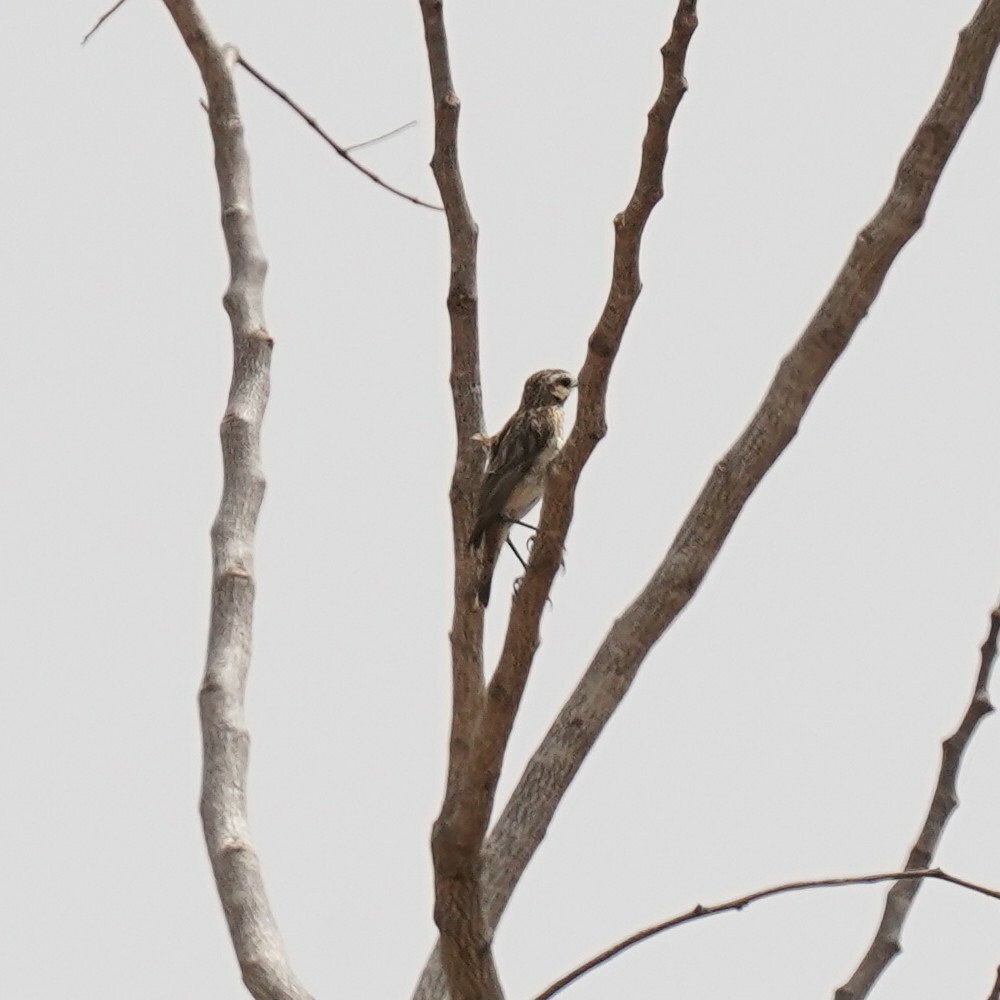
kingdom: Animalia
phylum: Chordata
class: Aves
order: Passeriformes
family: Muscicapidae
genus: Saxicola
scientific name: Saxicola rubetra
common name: Whinchat
